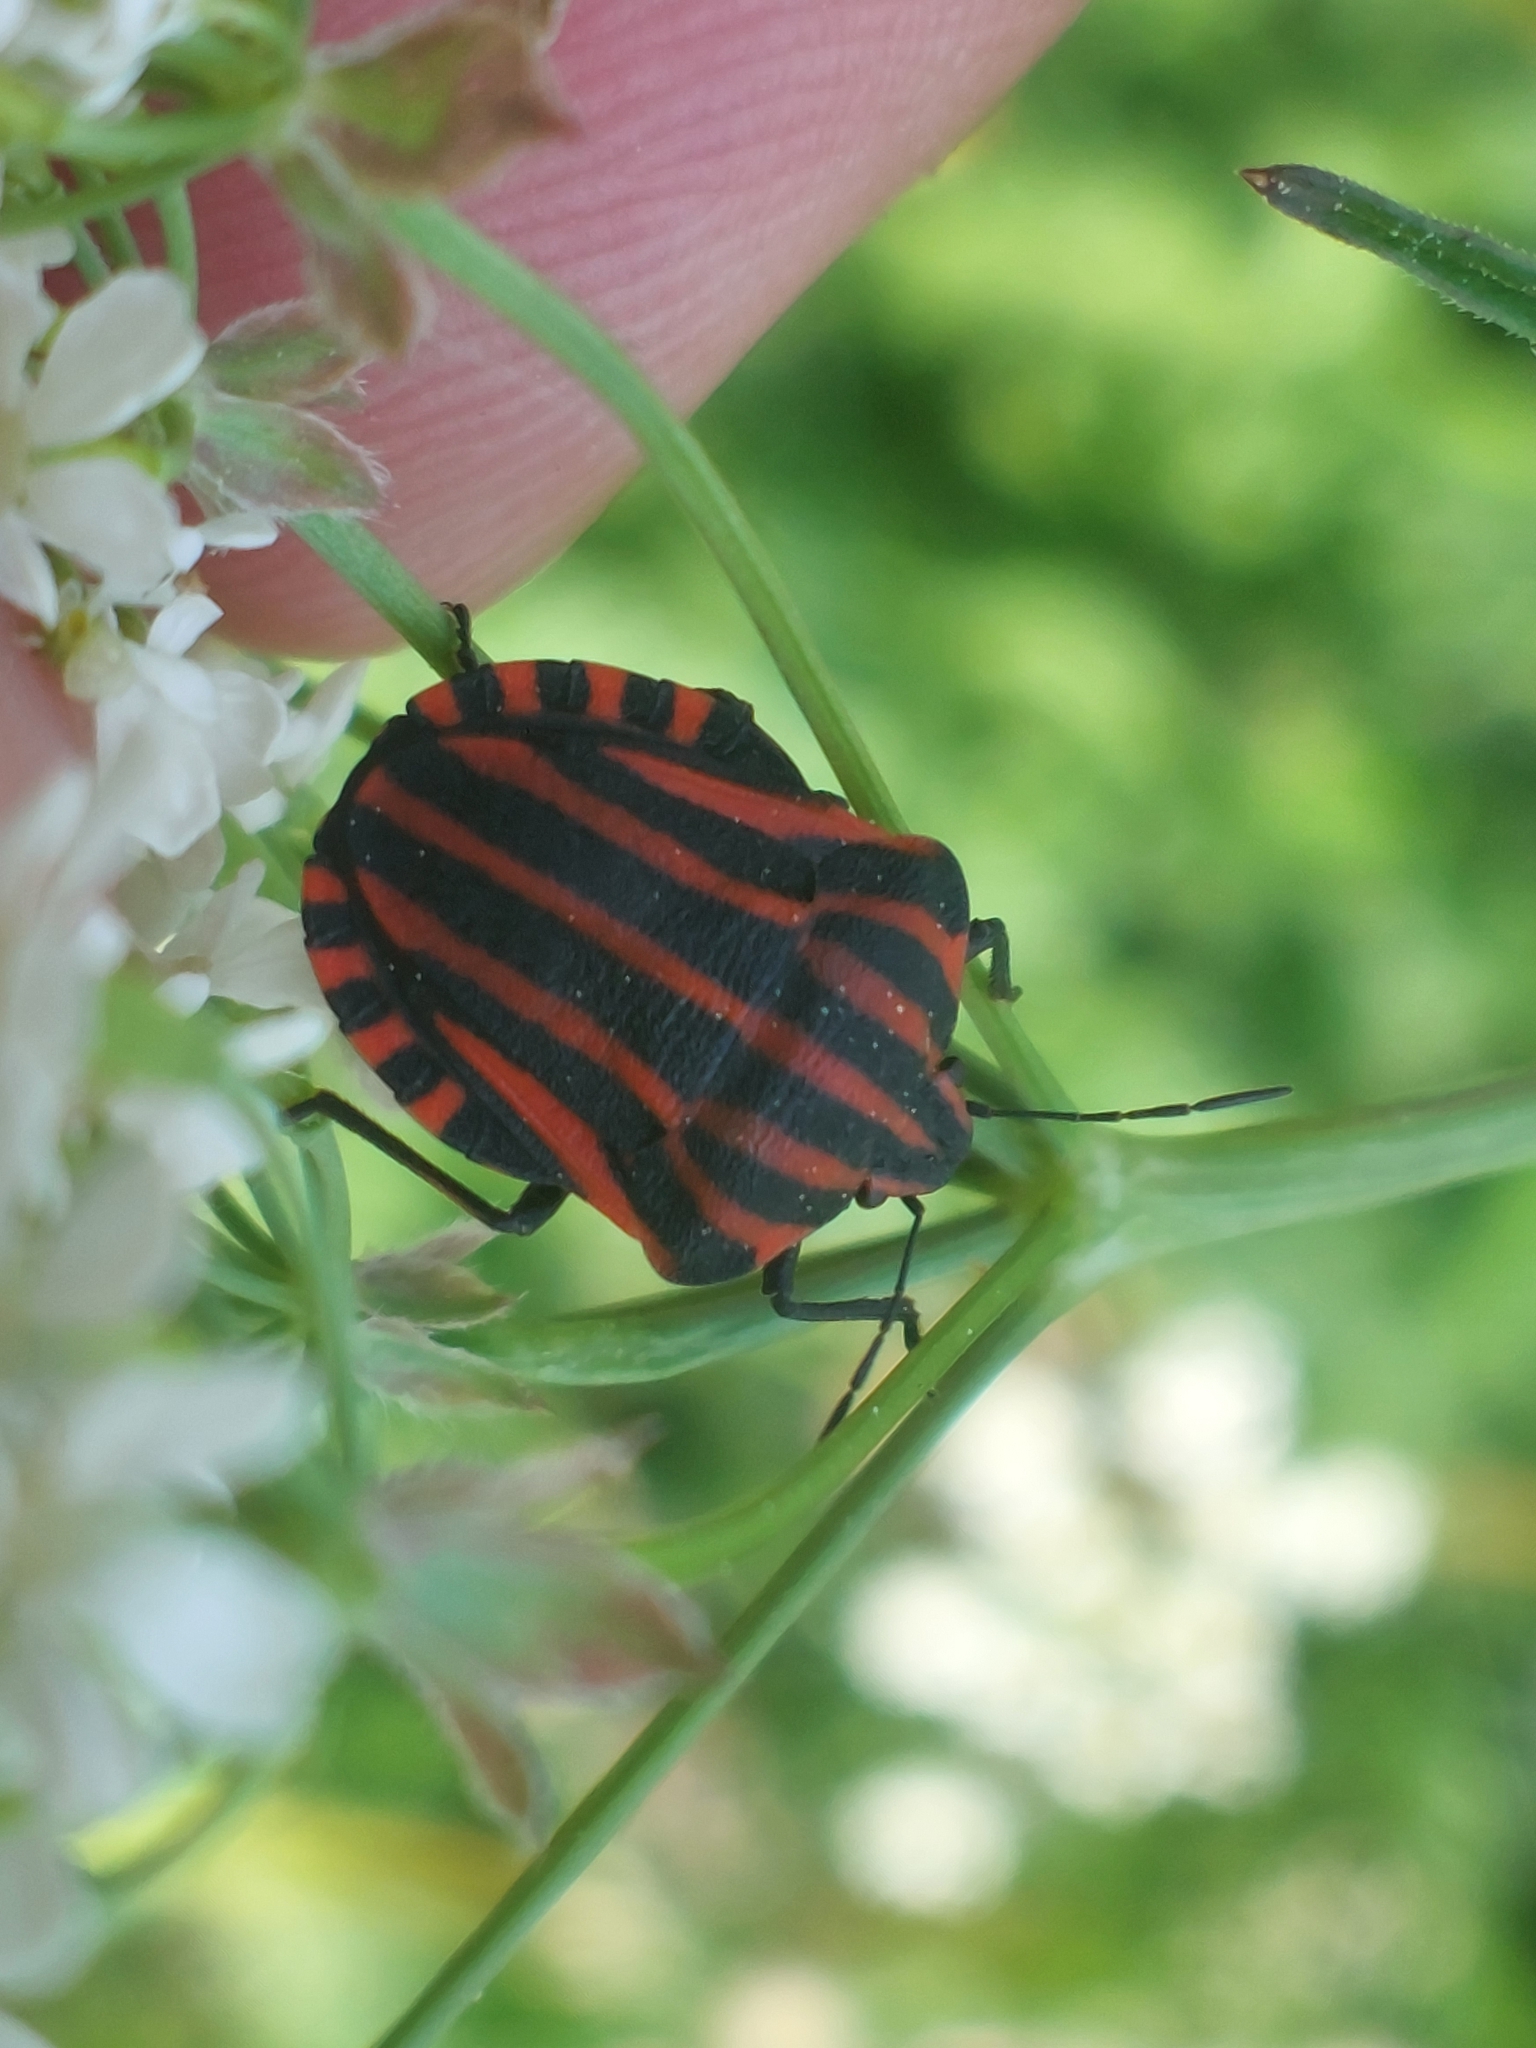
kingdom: Animalia
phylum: Arthropoda
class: Insecta
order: Hemiptera
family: Pentatomidae
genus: Graphosoma
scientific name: Graphosoma italicum
